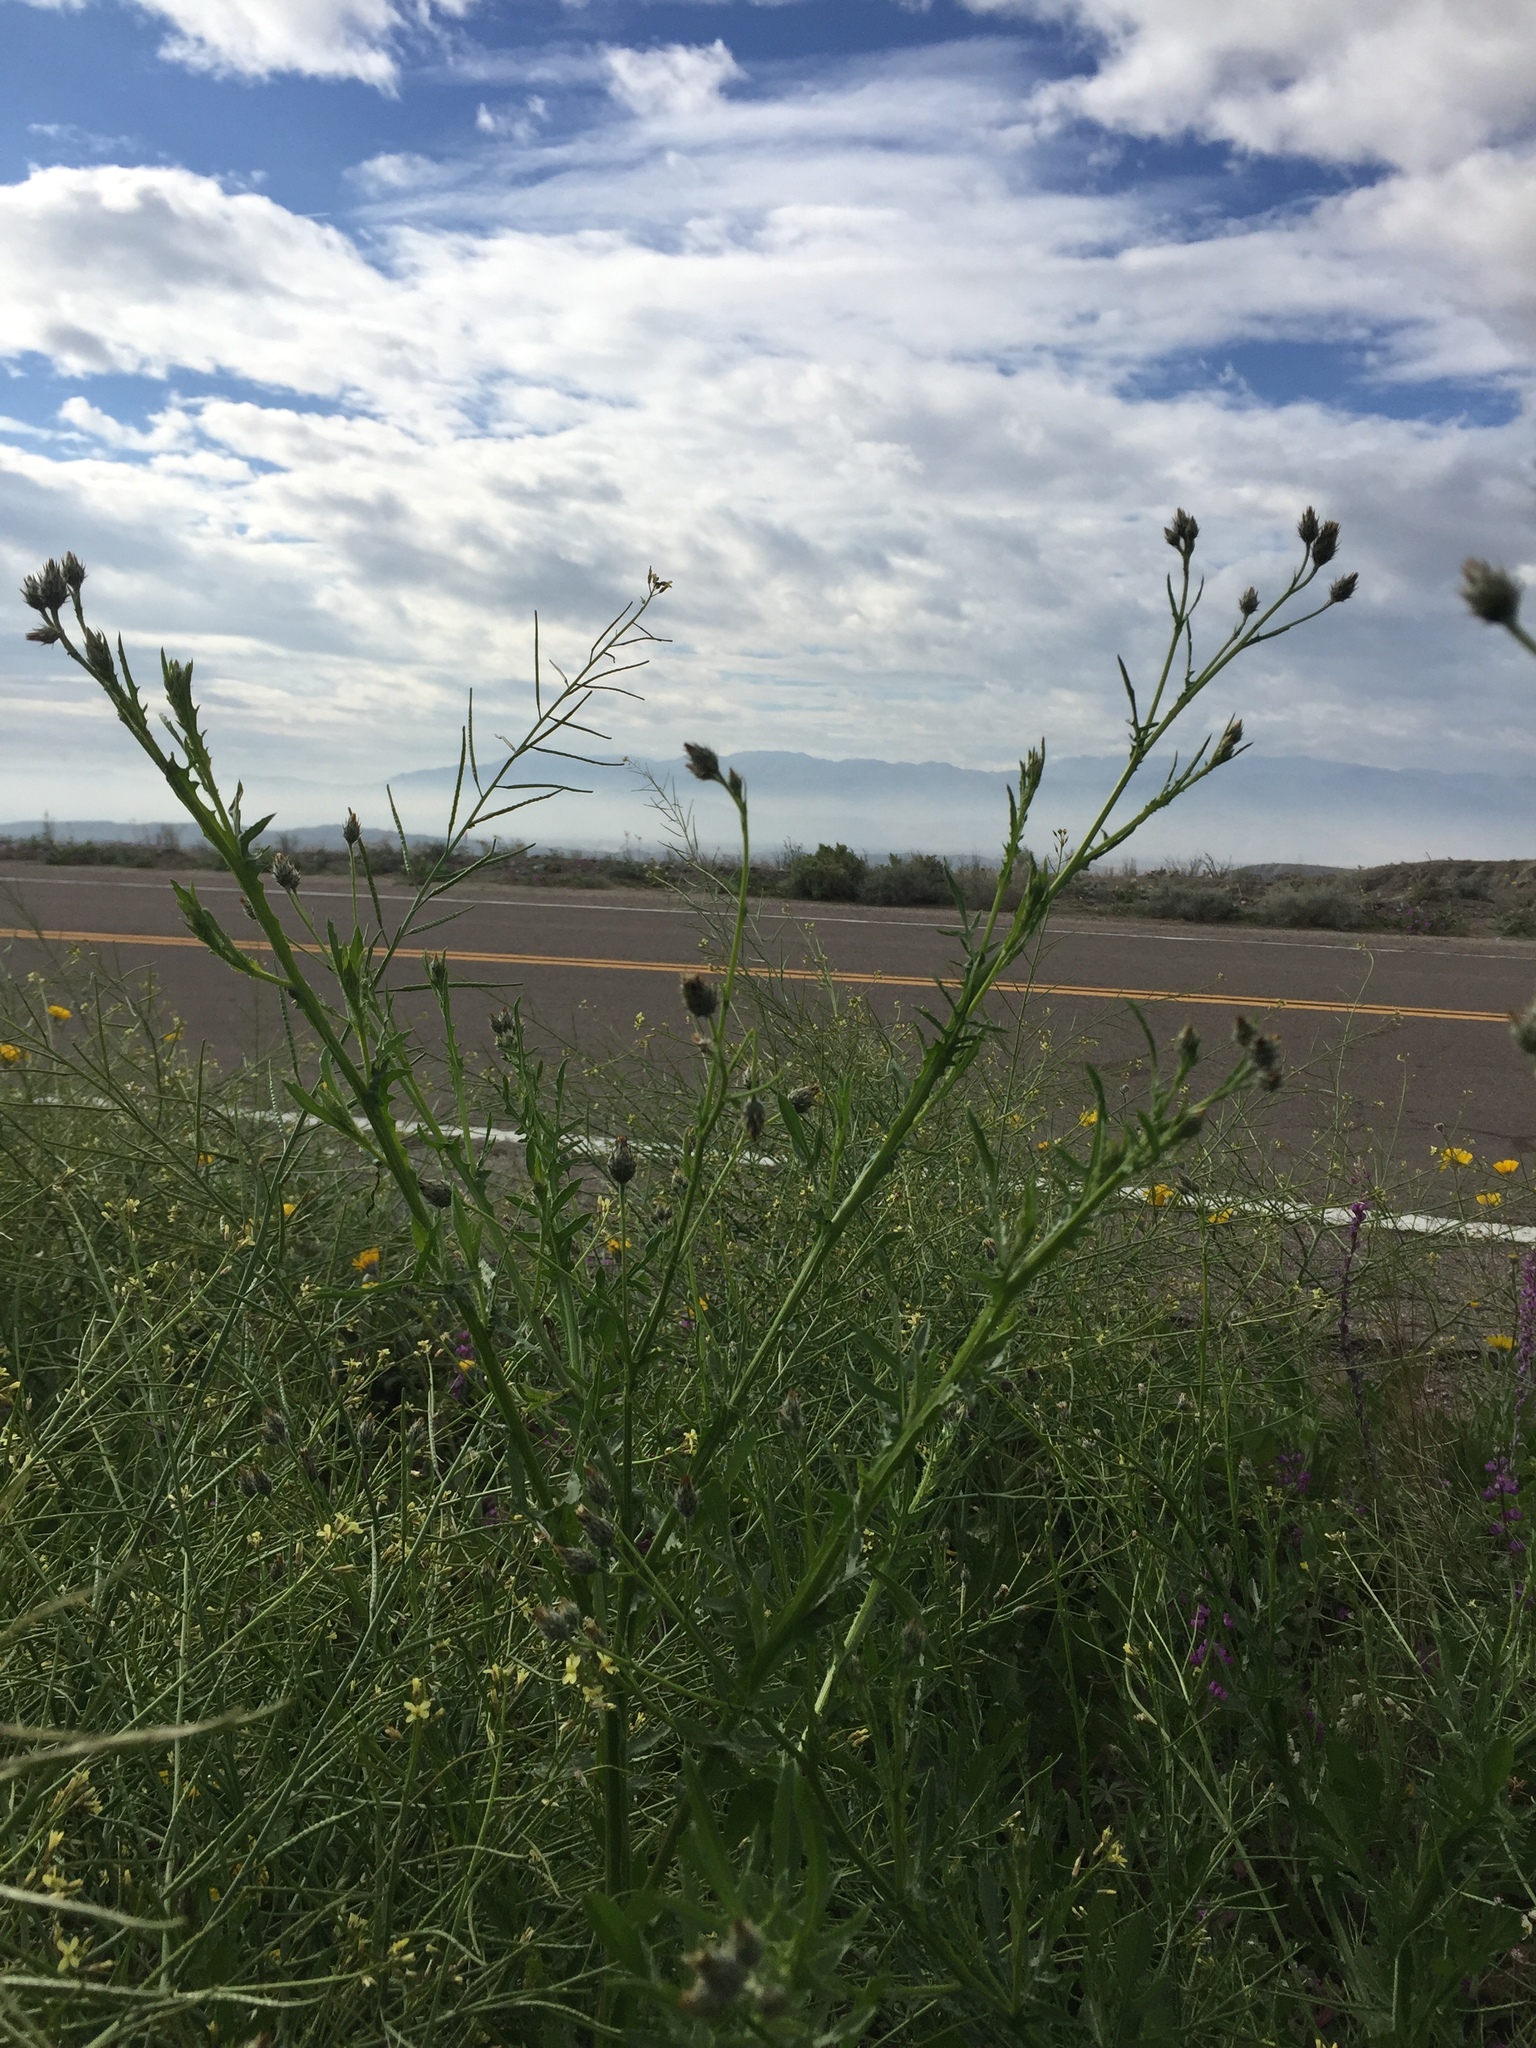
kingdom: Plantae
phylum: Tracheophyta
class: Magnoliopsida
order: Asterales
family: Asteraceae
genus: Volutaria
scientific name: Volutaria tubuliflora
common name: Desert knapweed
